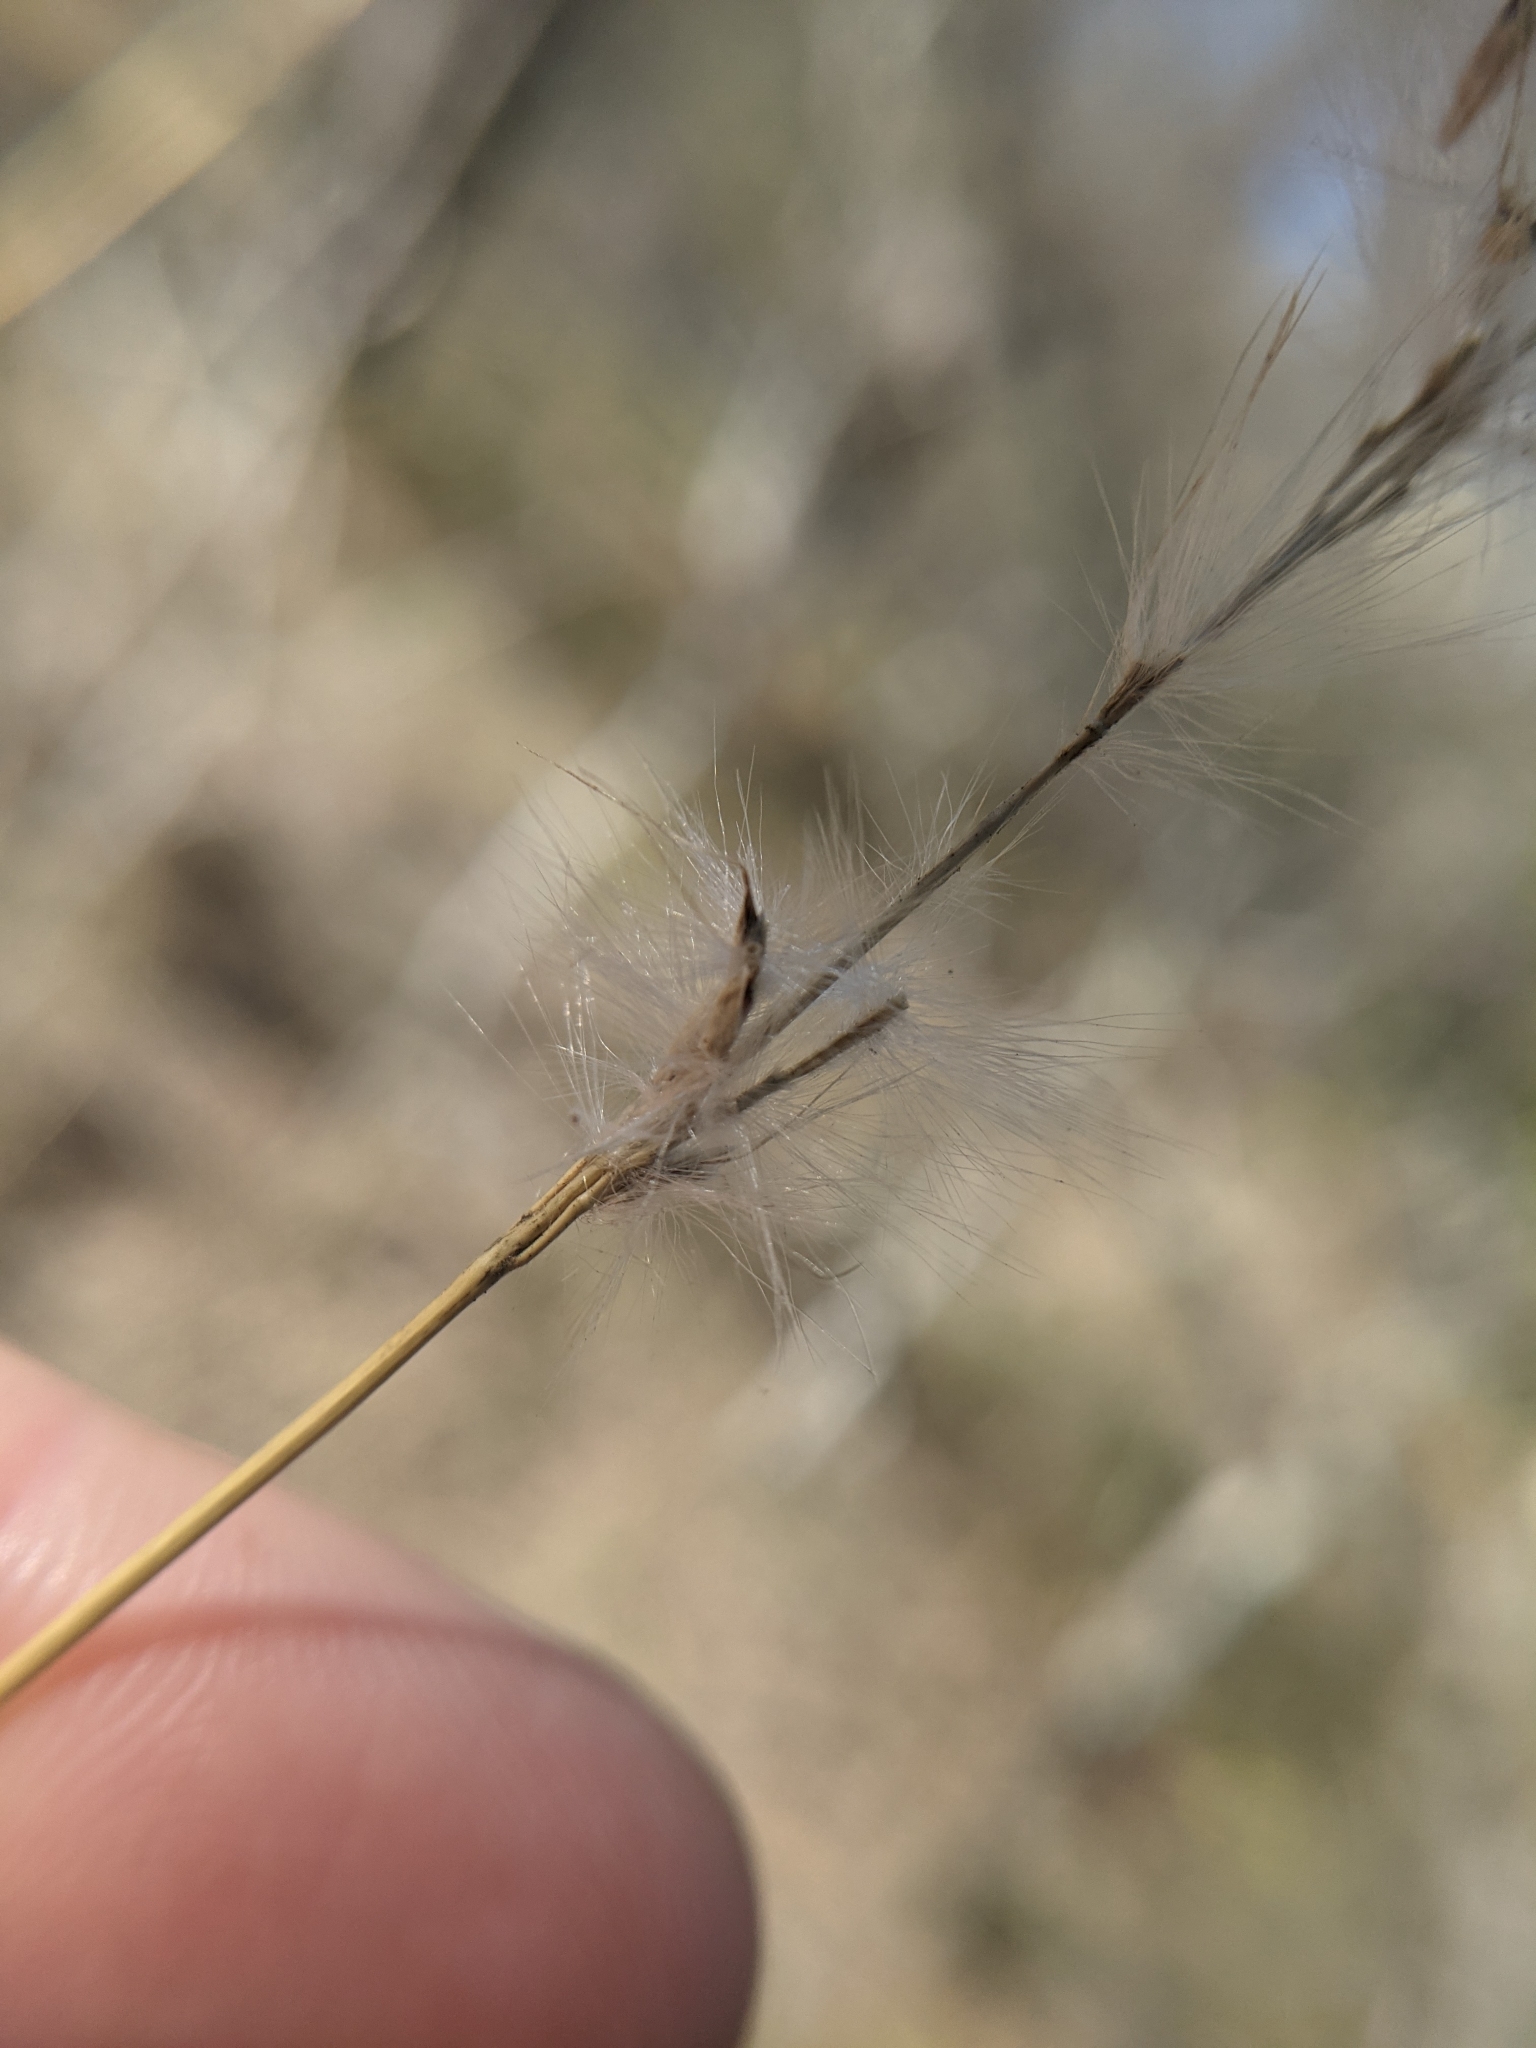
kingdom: Plantae
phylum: Tracheophyta
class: Liliopsida
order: Poales
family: Poaceae
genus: Bothriochloa
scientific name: Bothriochloa barbinodis
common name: Cane bluestem
